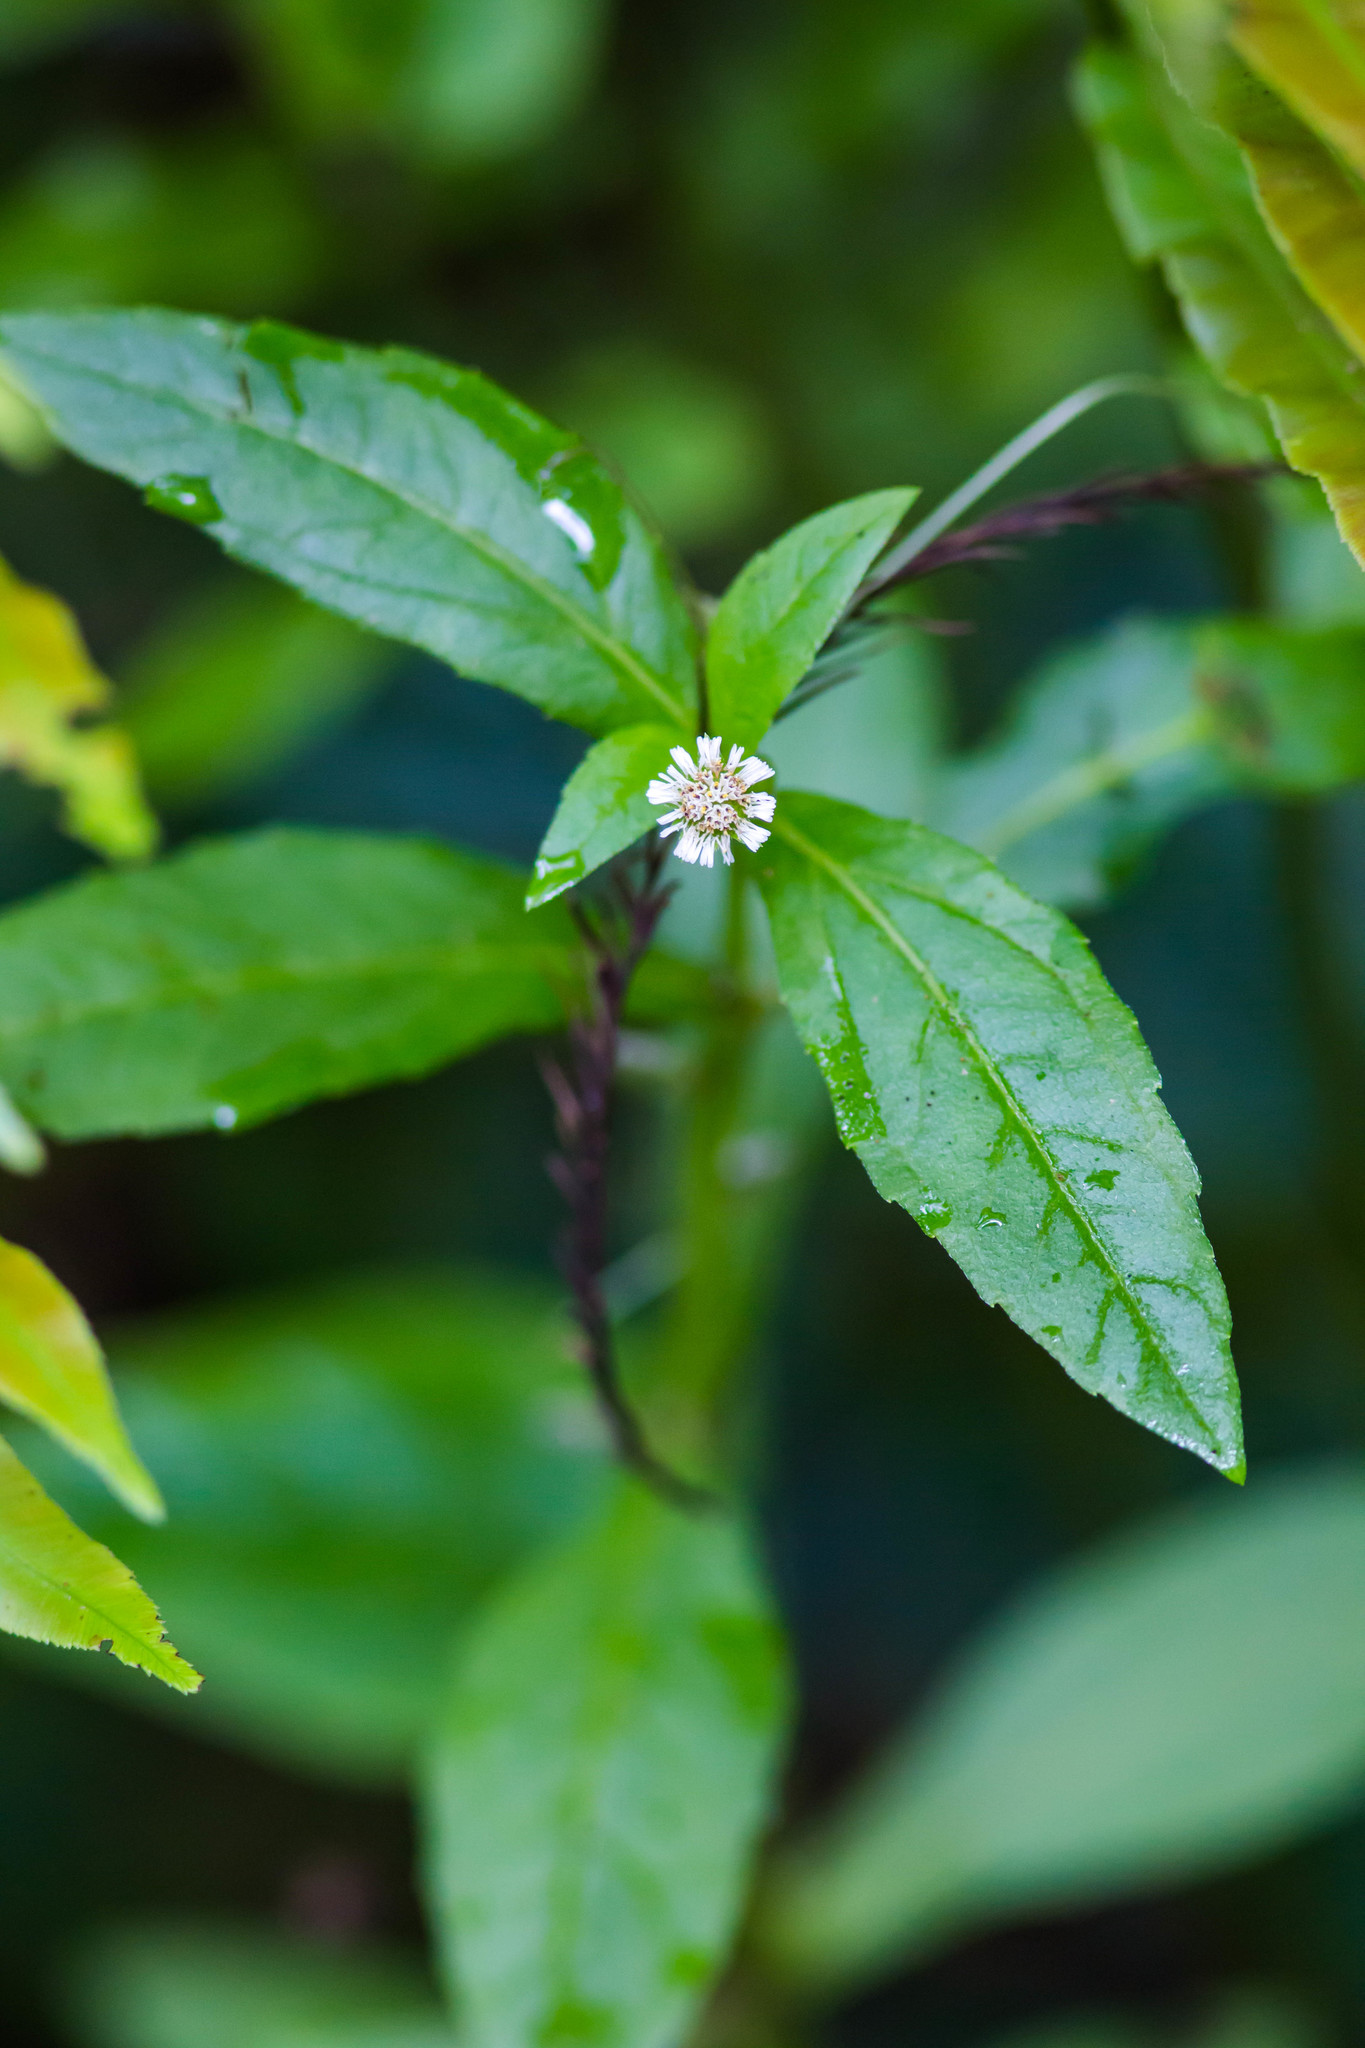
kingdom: Plantae
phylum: Tracheophyta
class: Magnoliopsida
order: Asterales
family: Asteraceae
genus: Eclipta
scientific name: Eclipta prostrata
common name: False daisy
